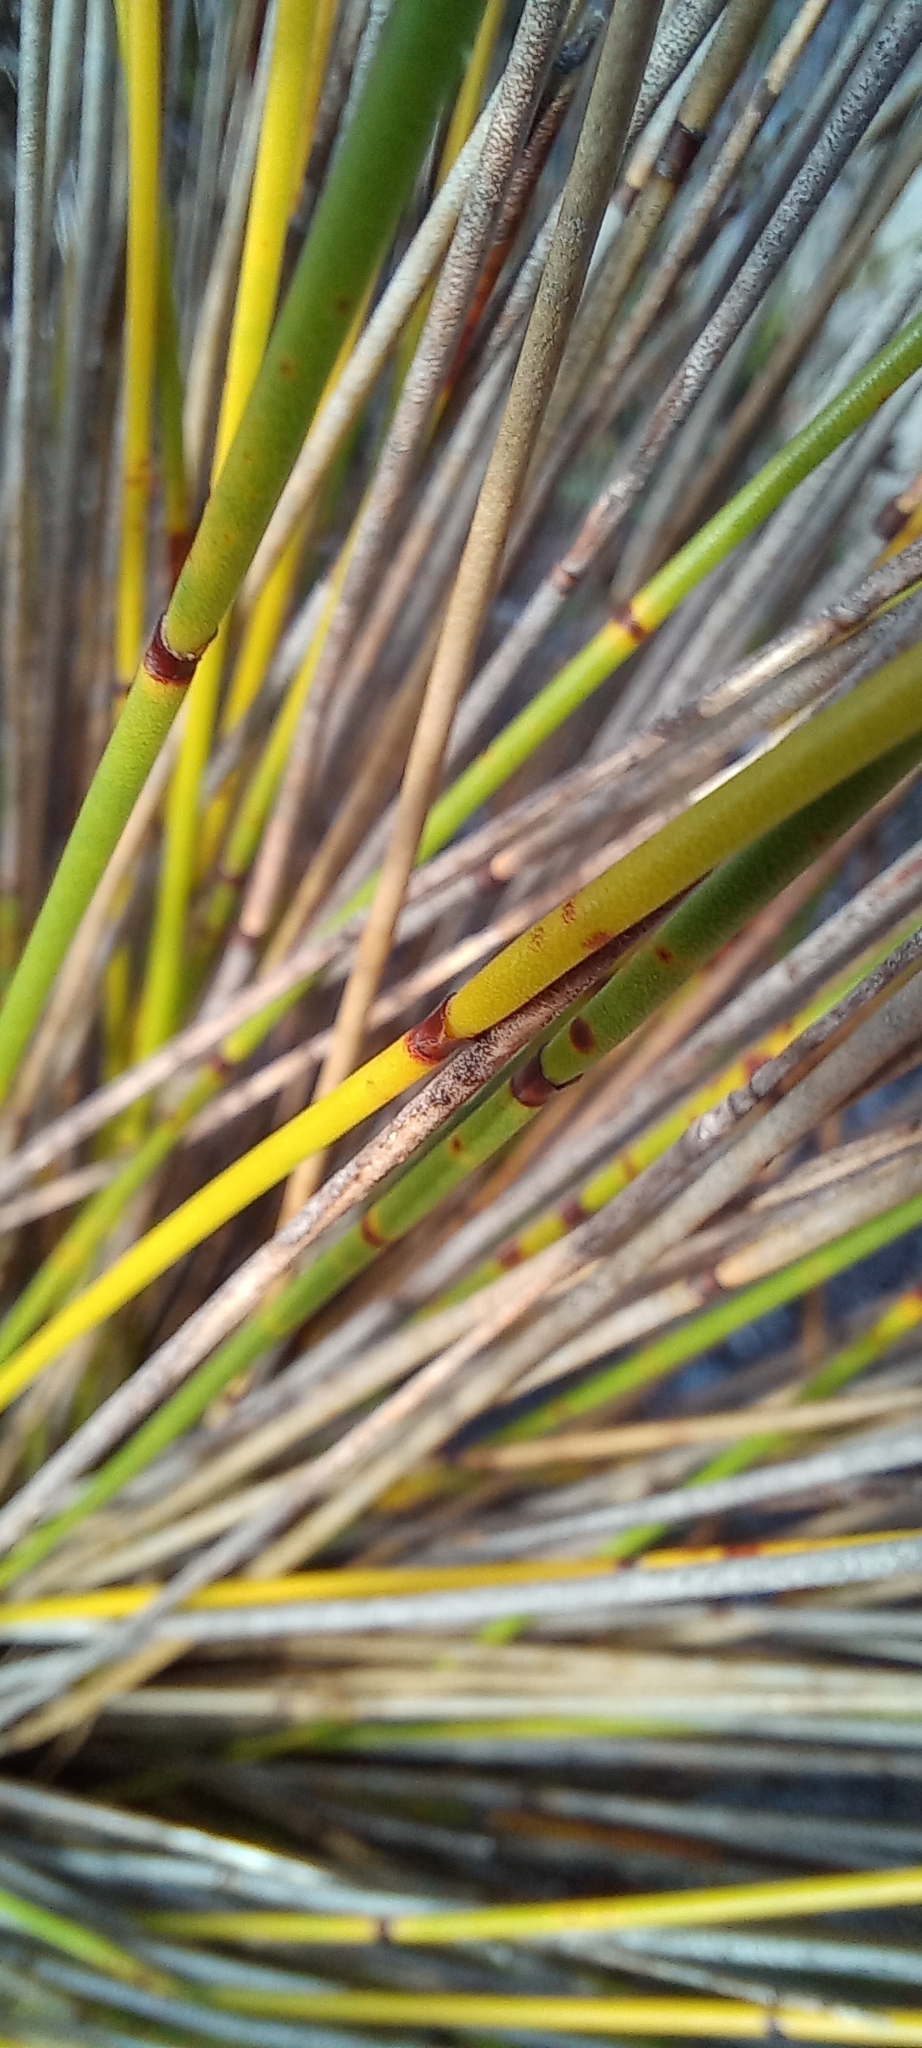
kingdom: Plantae
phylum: Tracheophyta
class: Liliopsida
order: Poales
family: Restionaceae
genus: Elegia
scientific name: Elegia ebracteata
